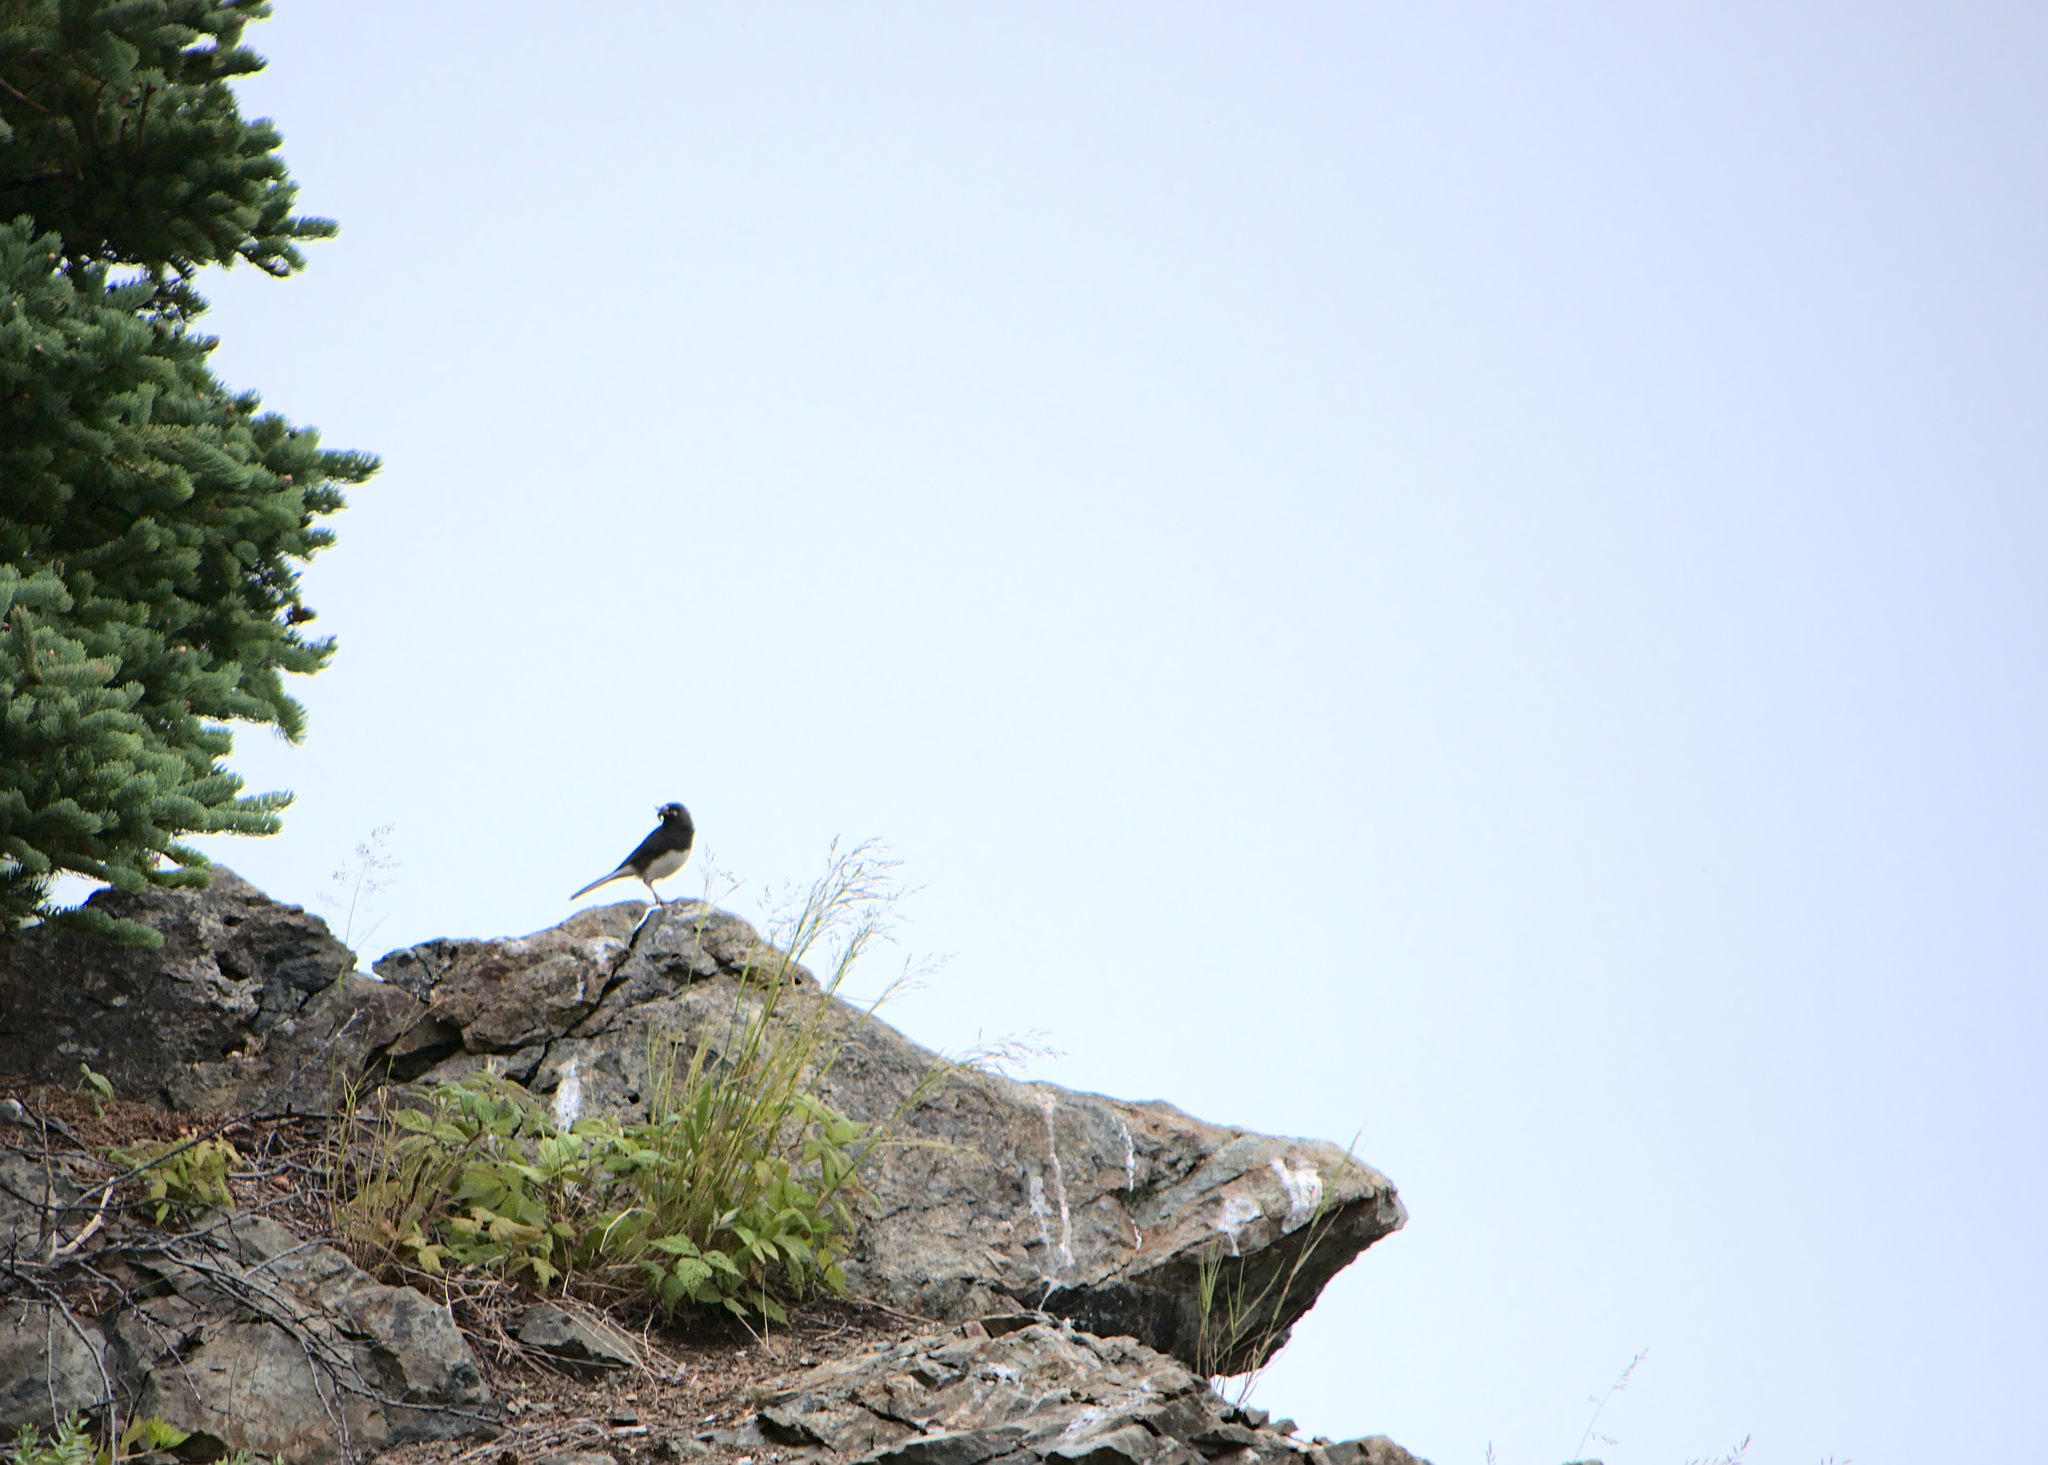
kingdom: Animalia
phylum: Chordata
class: Aves
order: Passeriformes
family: Passerellidae
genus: Junco
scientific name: Junco hyemalis
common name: Dark-eyed junco
